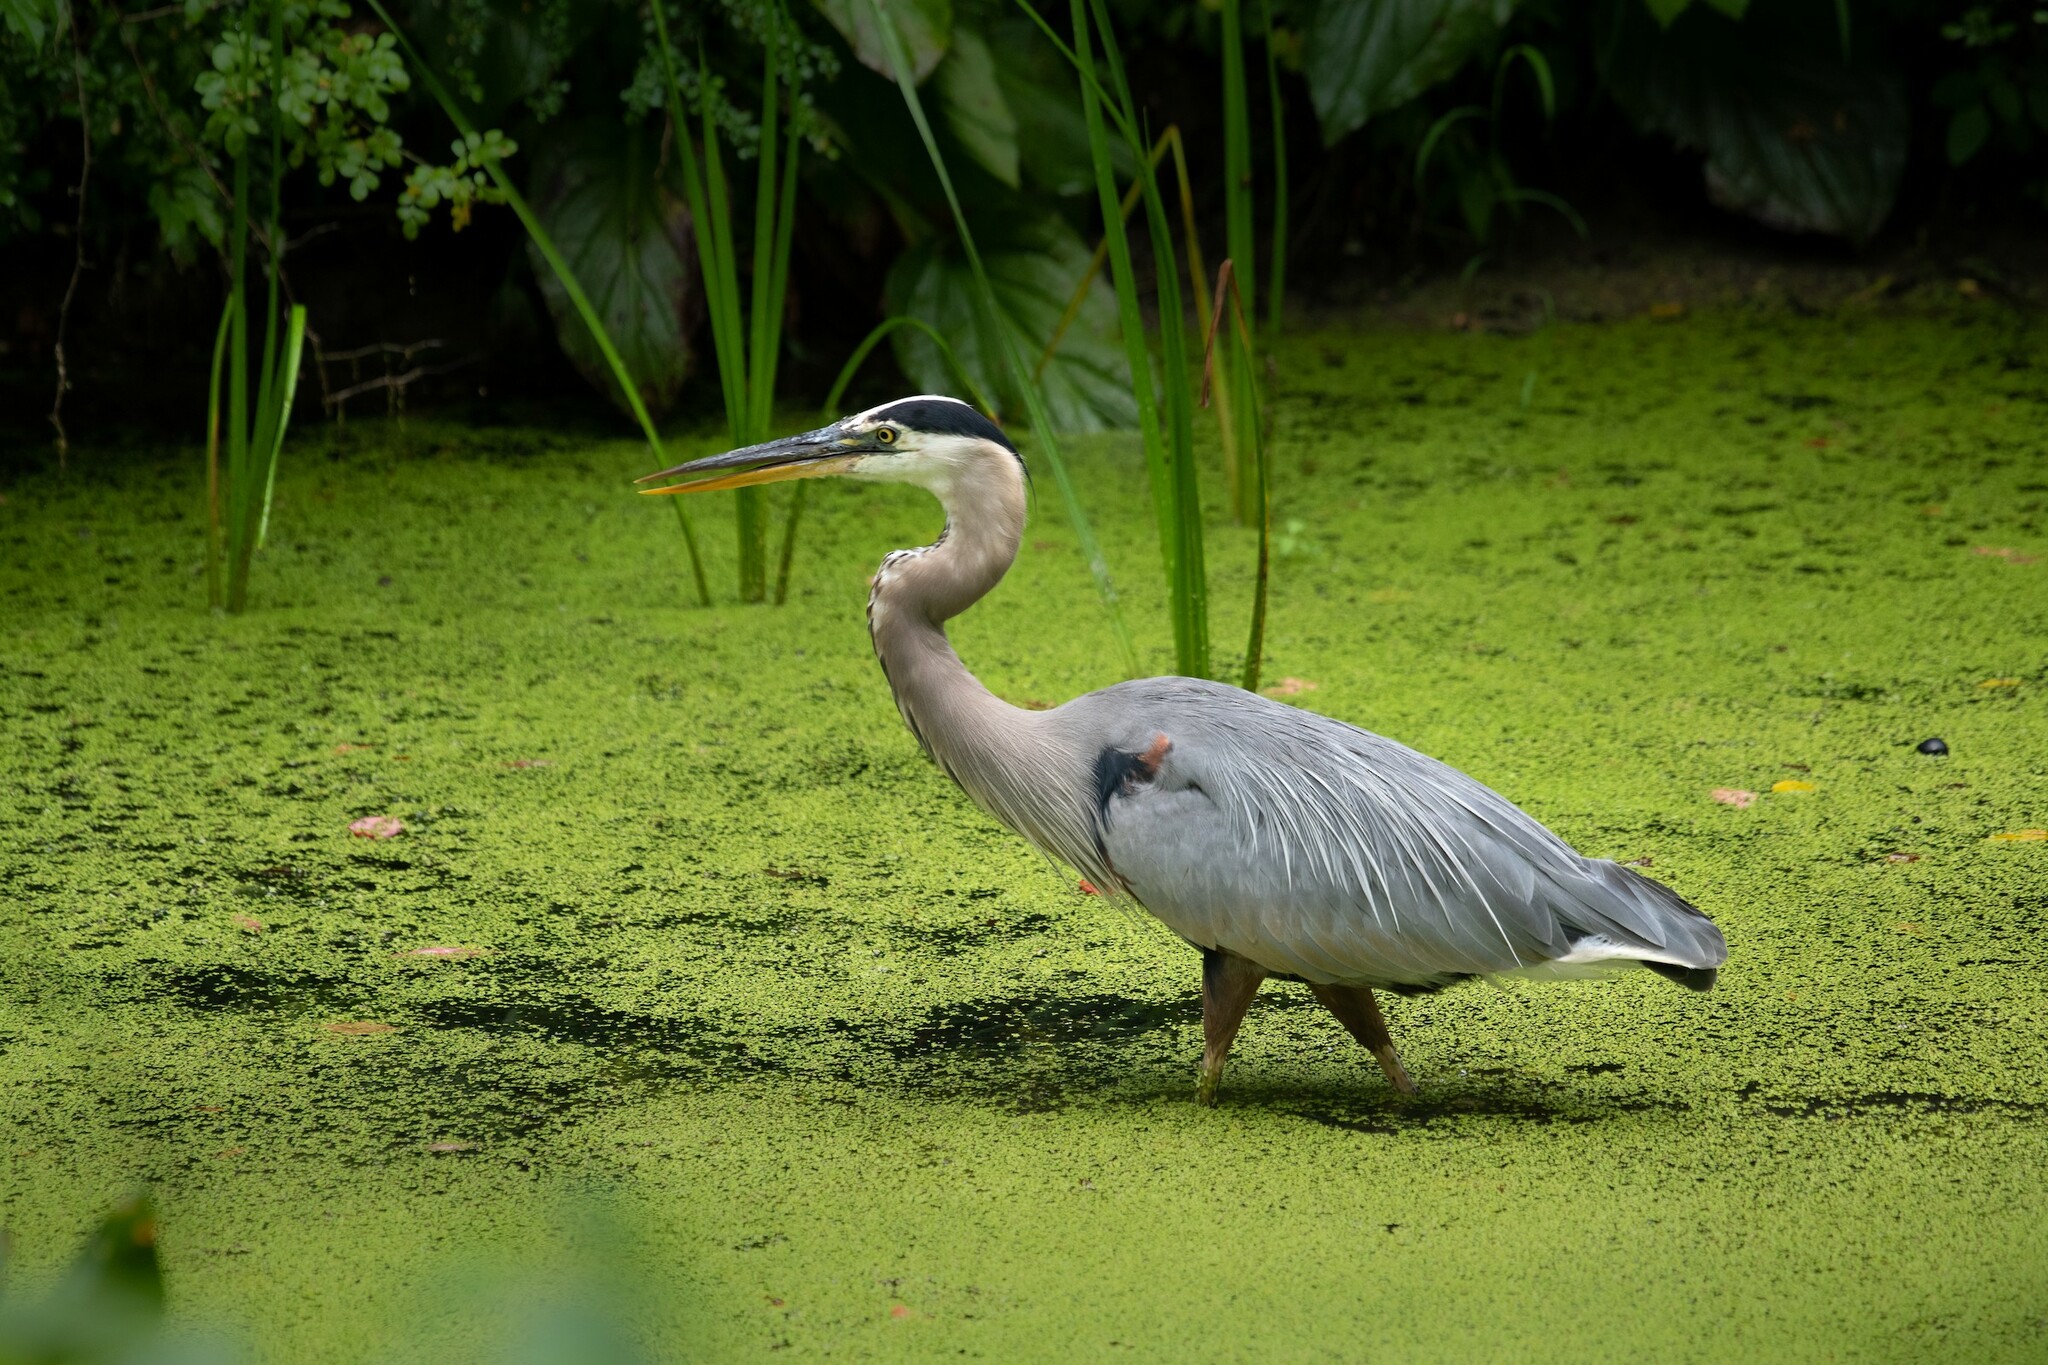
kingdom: Animalia
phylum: Chordata
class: Aves
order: Pelecaniformes
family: Ardeidae
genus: Ardea
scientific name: Ardea herodias
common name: Great blue heron
